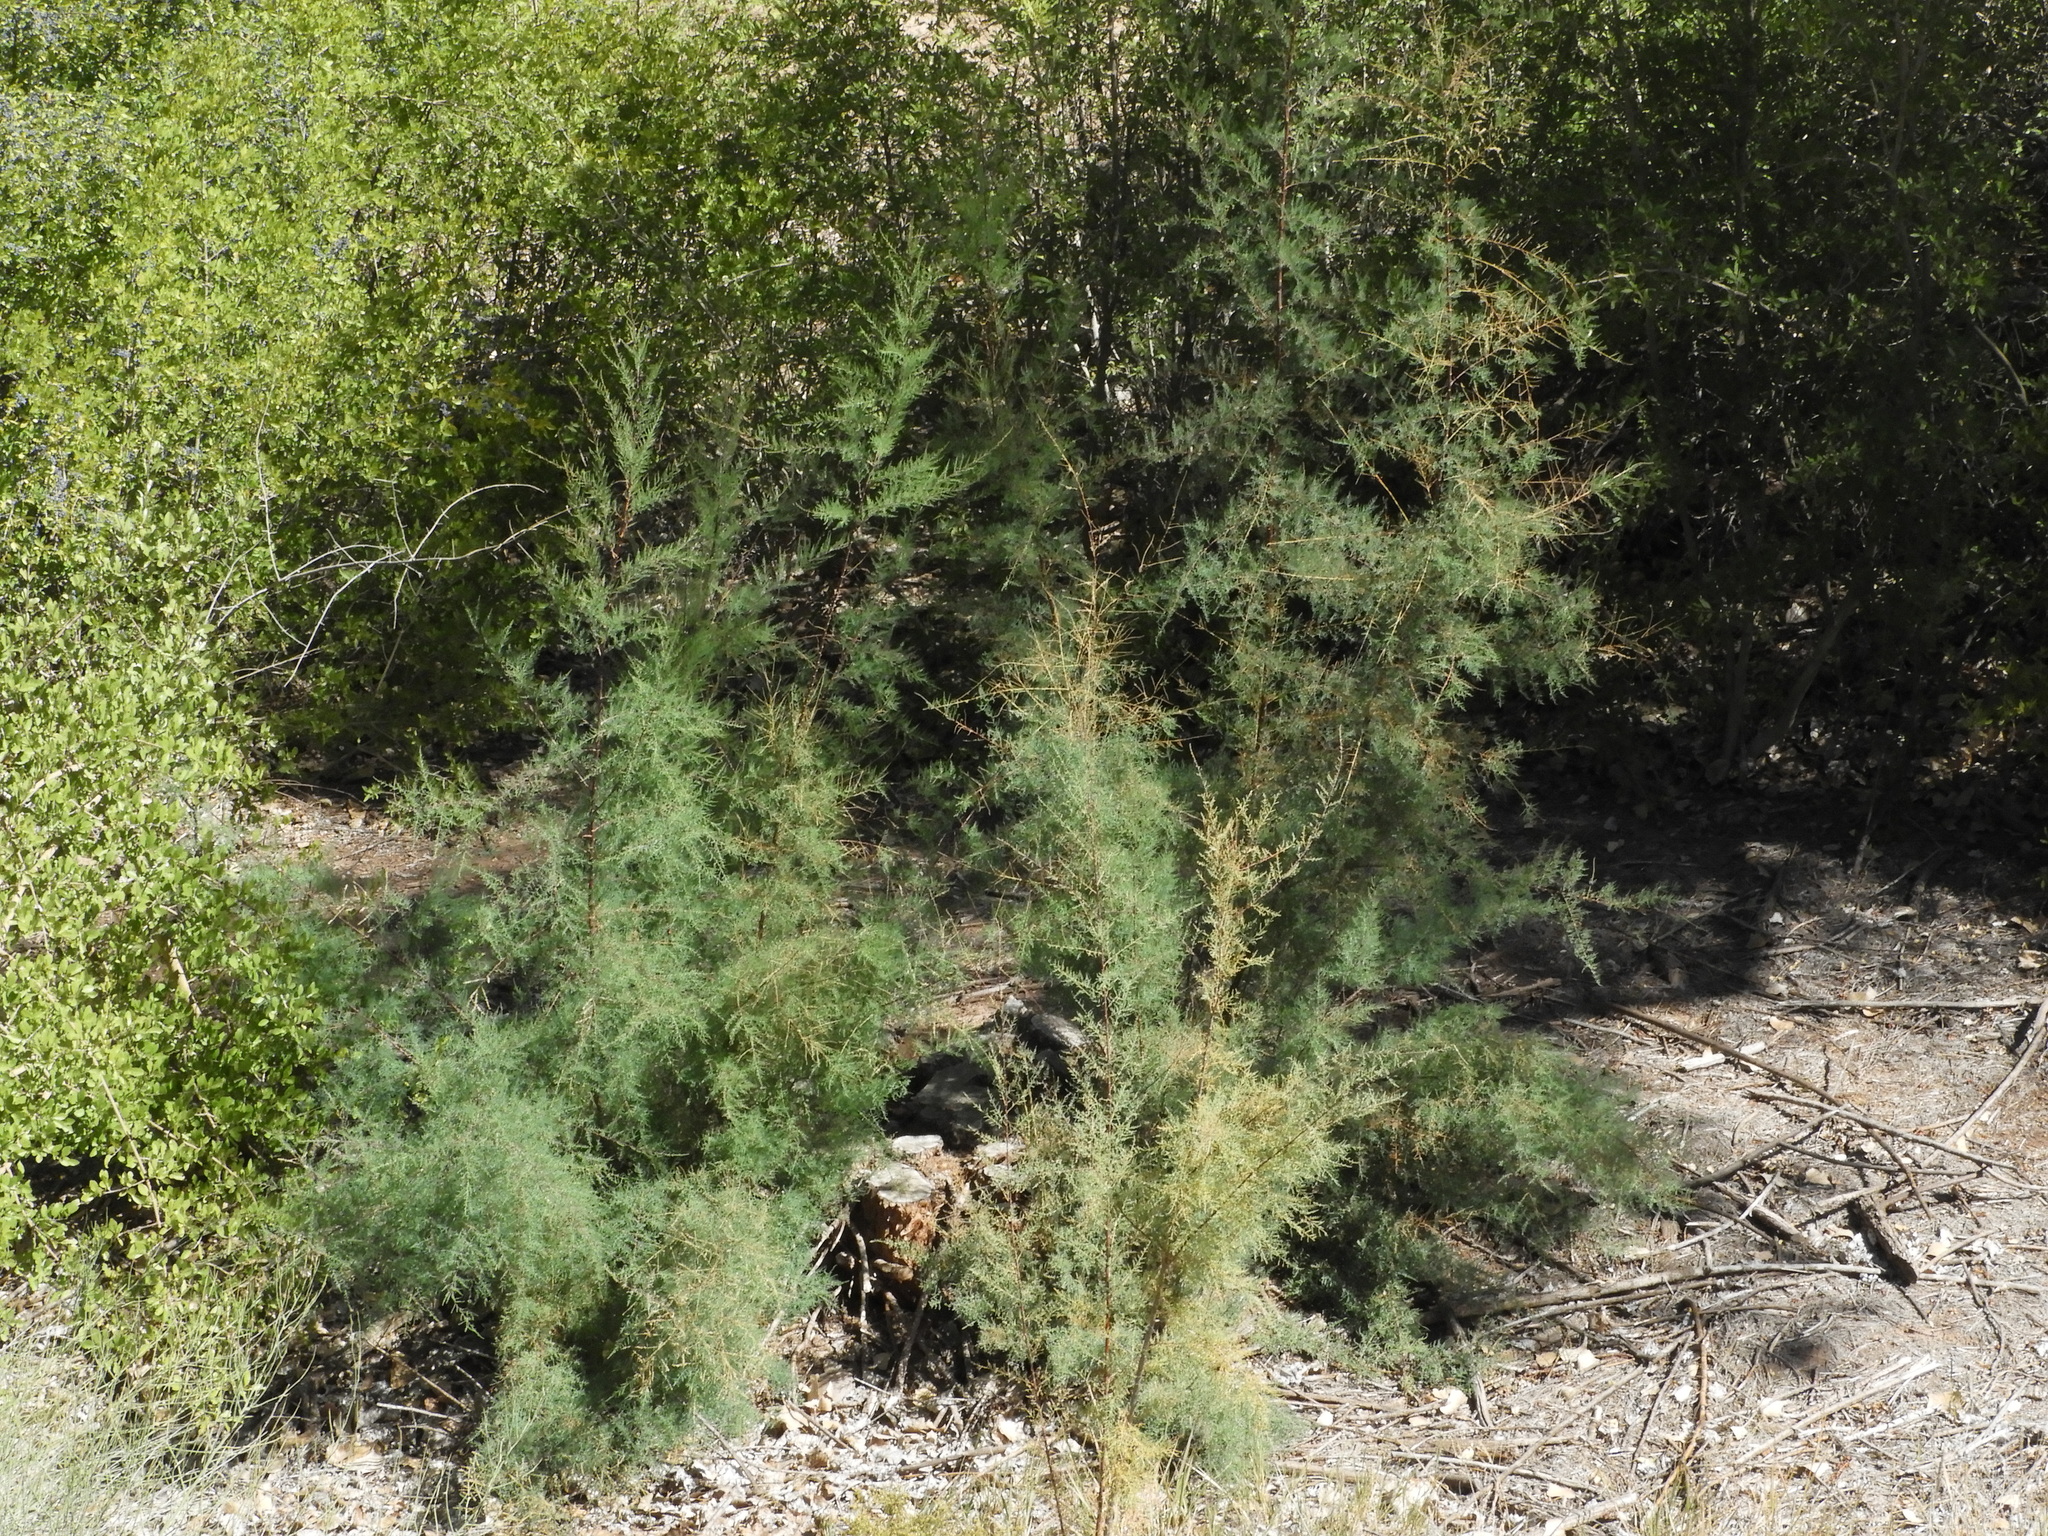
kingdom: Plantae
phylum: Tracheophyta
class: Magnoliopsida
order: Caryophyllales
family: Tamaricaceae
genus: Tamarix
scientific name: Tamarix ramosissima
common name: Pink tamarisk
